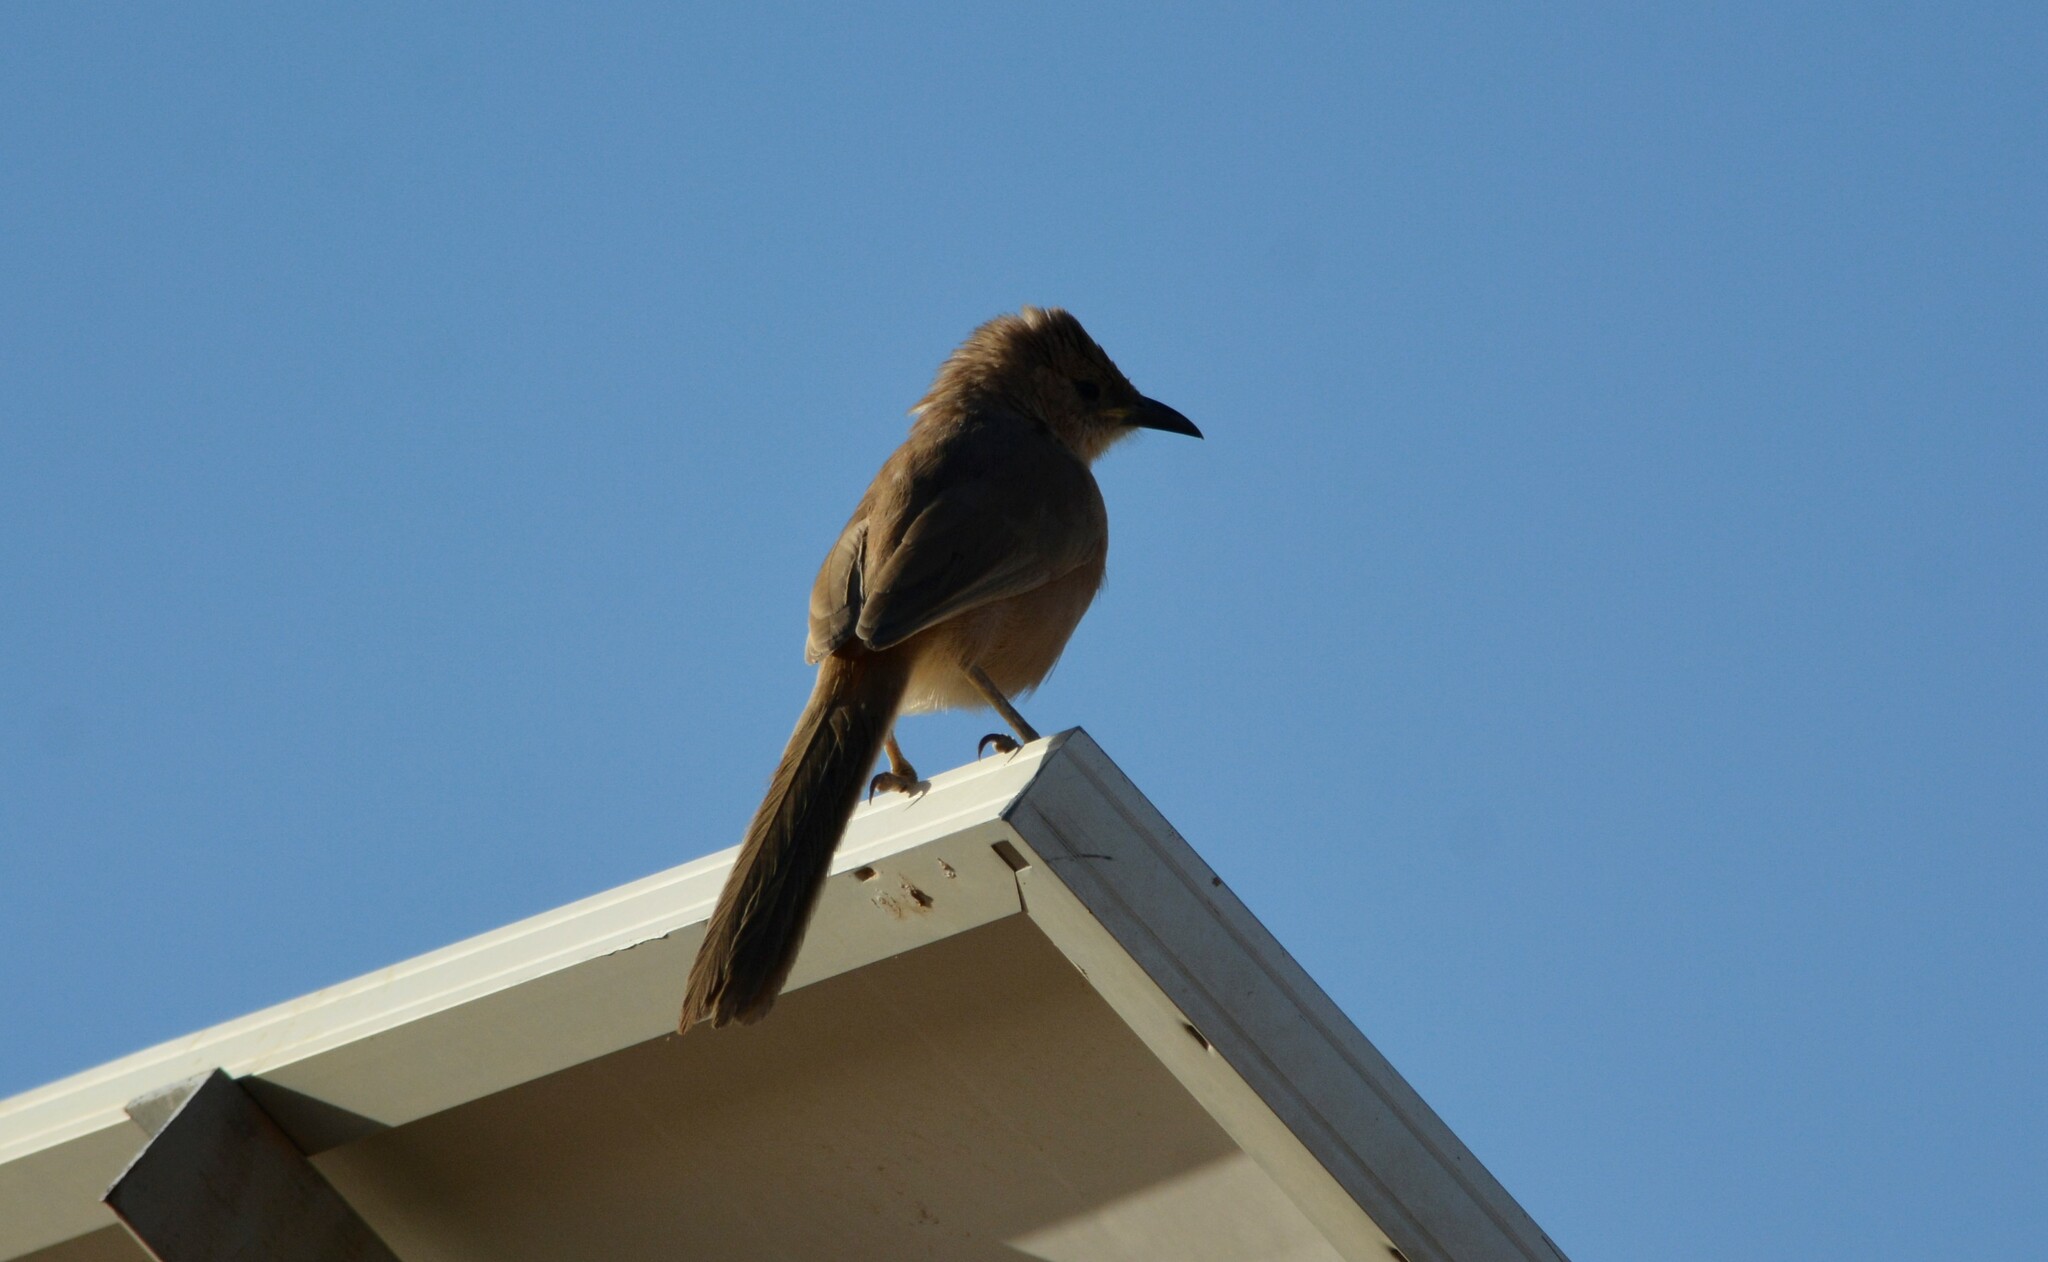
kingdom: Animalia
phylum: Chordata
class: Aves
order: Passeriformes
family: Leiothrichidae
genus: Turdoides
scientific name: Turdoides fulva
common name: Fulvous babbler
